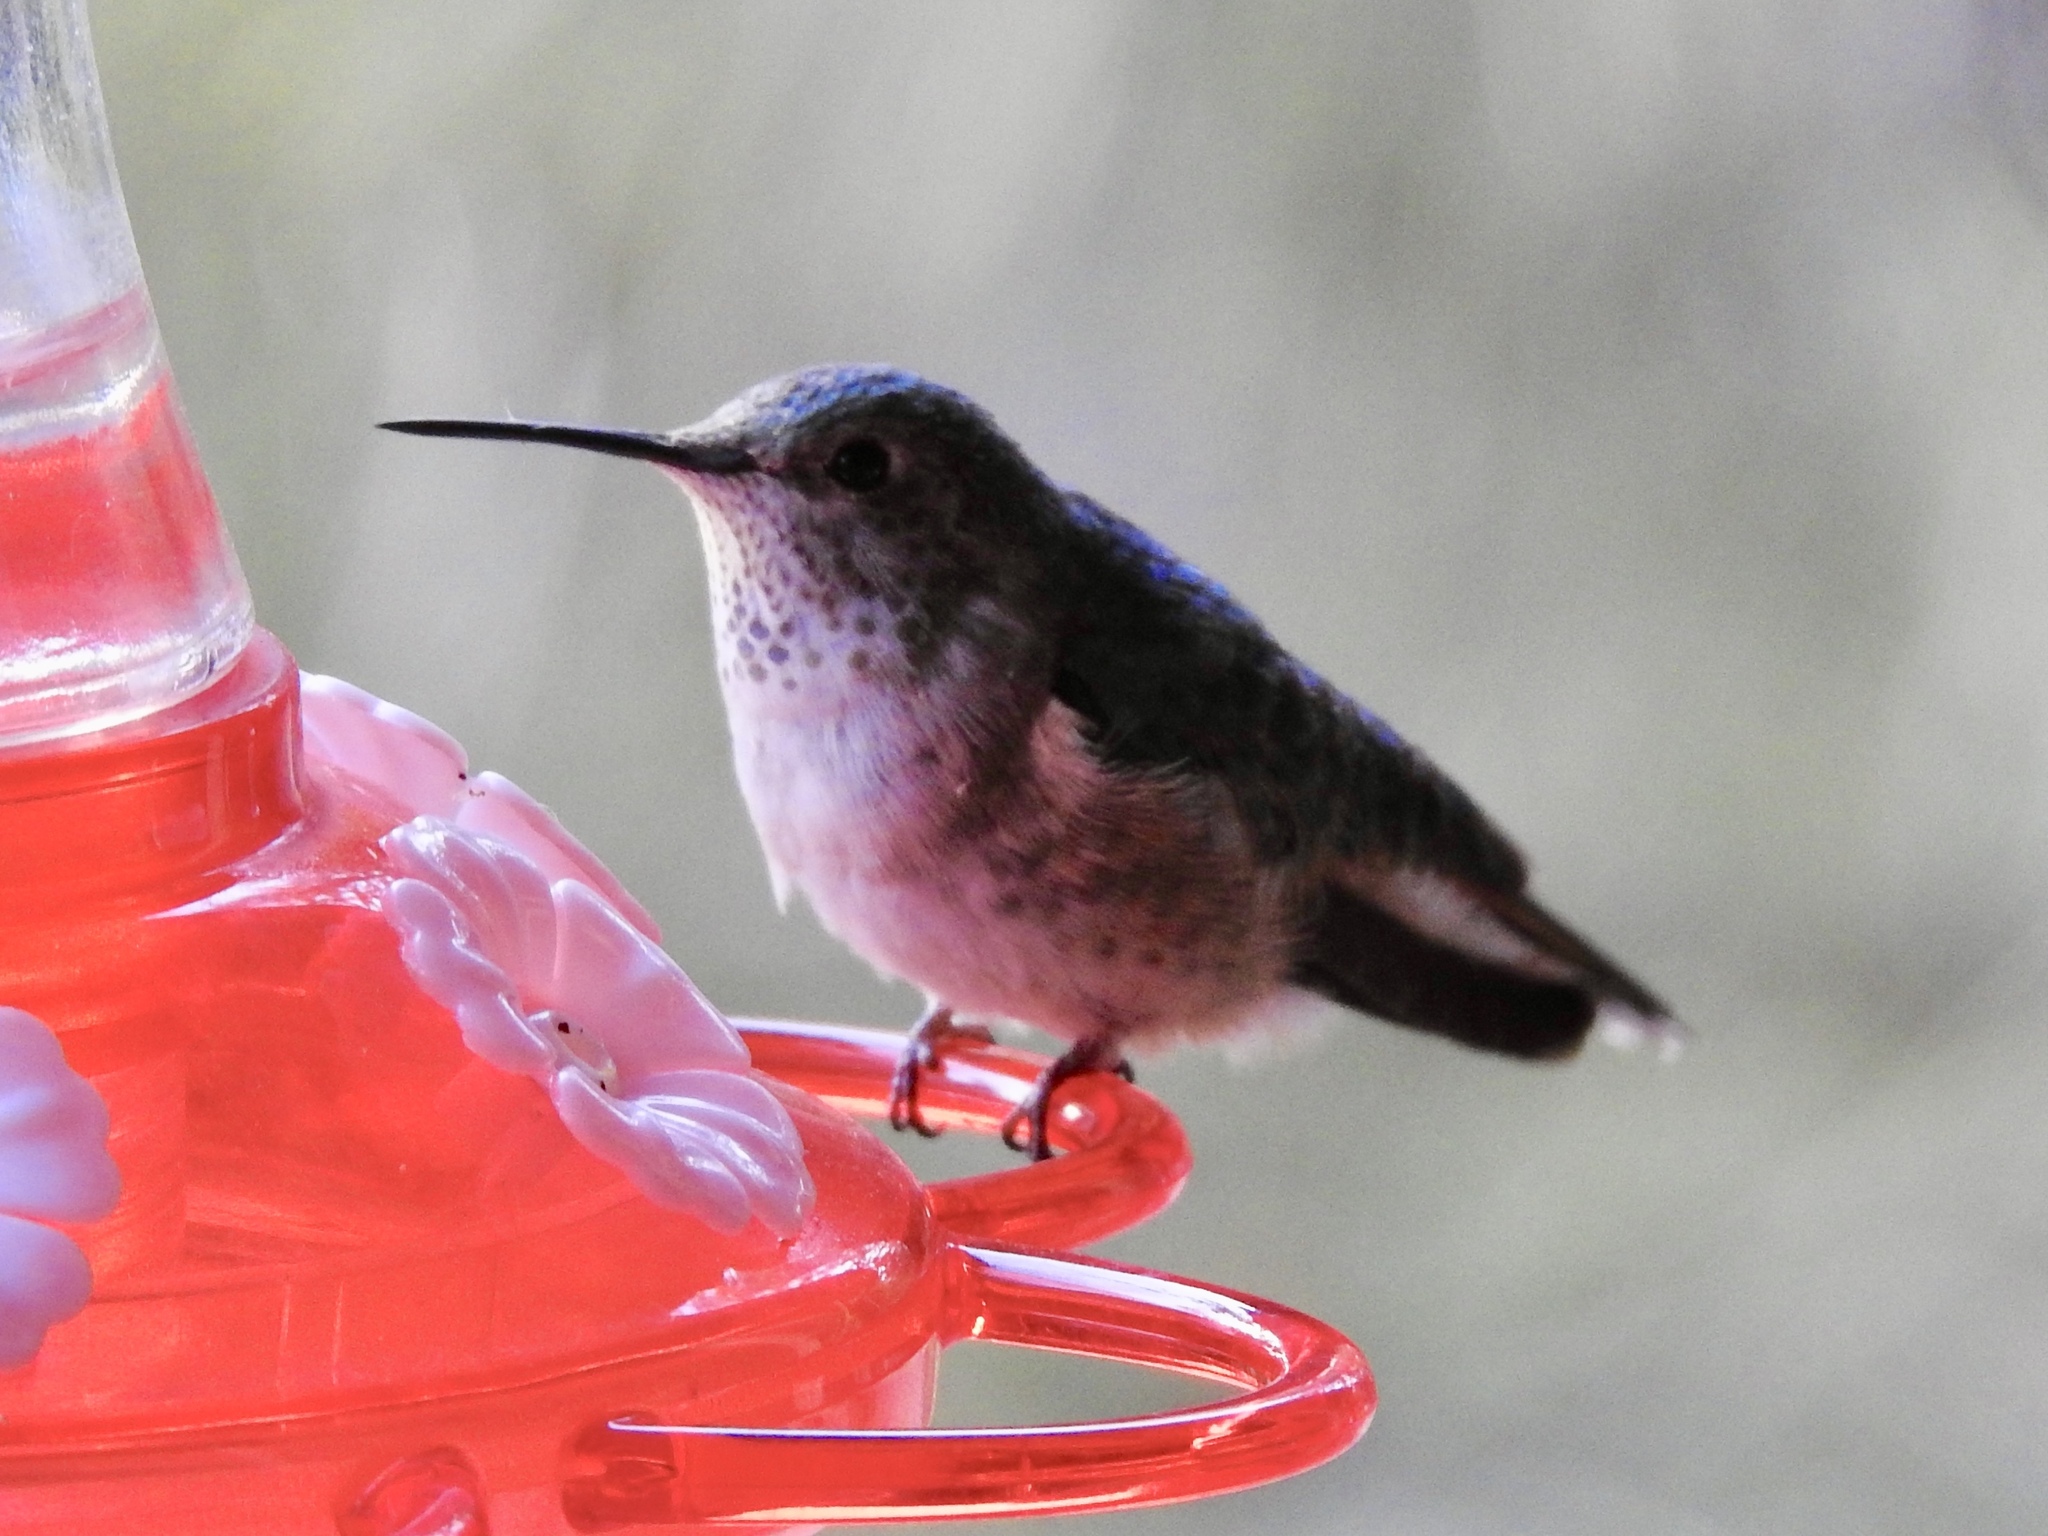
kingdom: Animalia
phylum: Chordata
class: Aves
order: Apodiformes
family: Trochilidae
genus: Selasphorus
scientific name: Selasphorus platycercus
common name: Broad-tailed hummingbird
